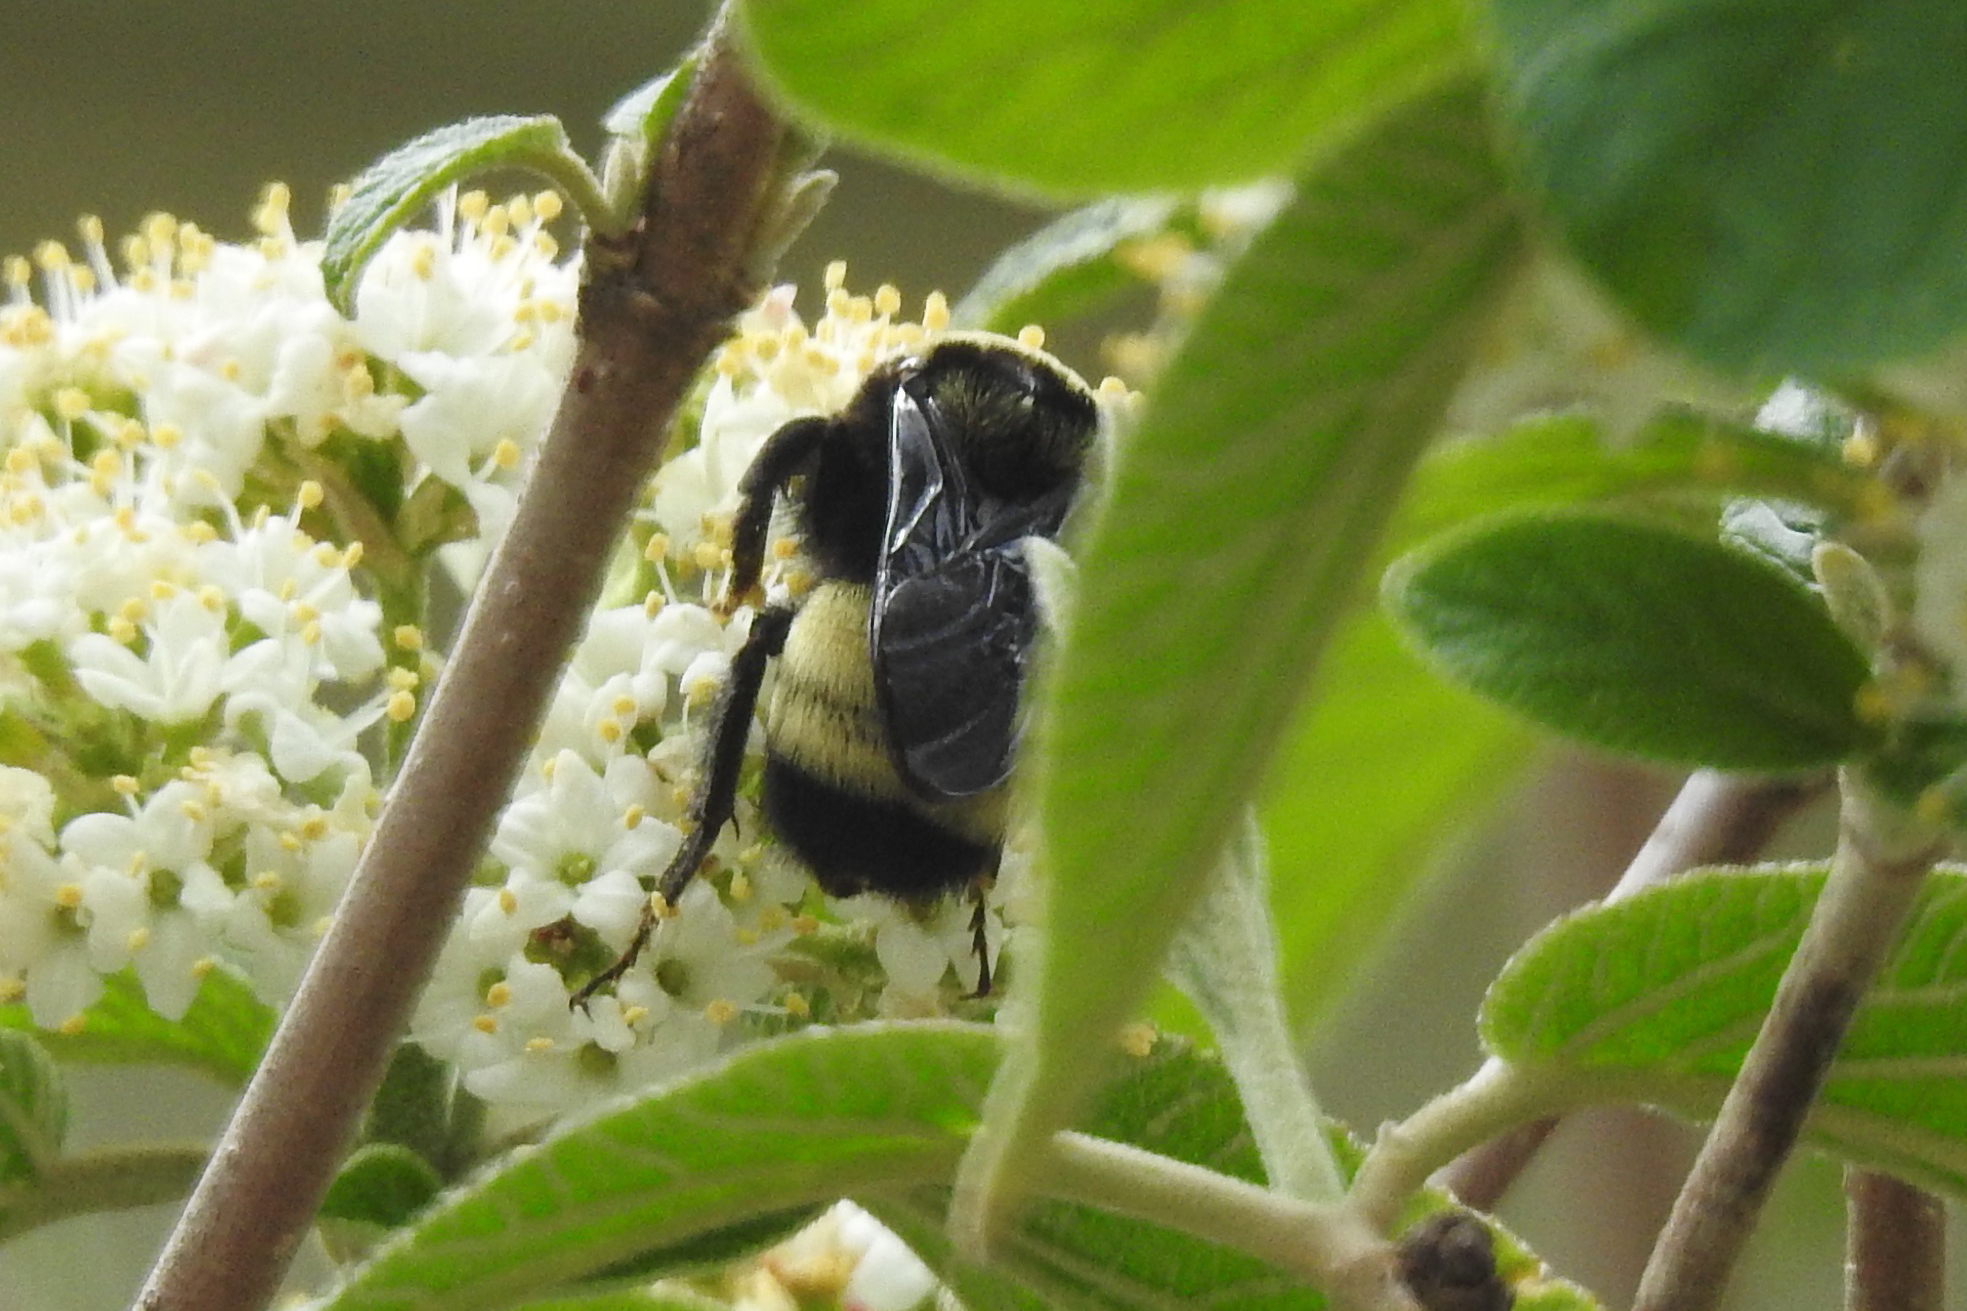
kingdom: Animalia
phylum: Arthropoda
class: Insecta
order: Hymenoptera
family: Apidae
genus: Bombus
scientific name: Bombus pensylvanicus
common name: Bumble bee
